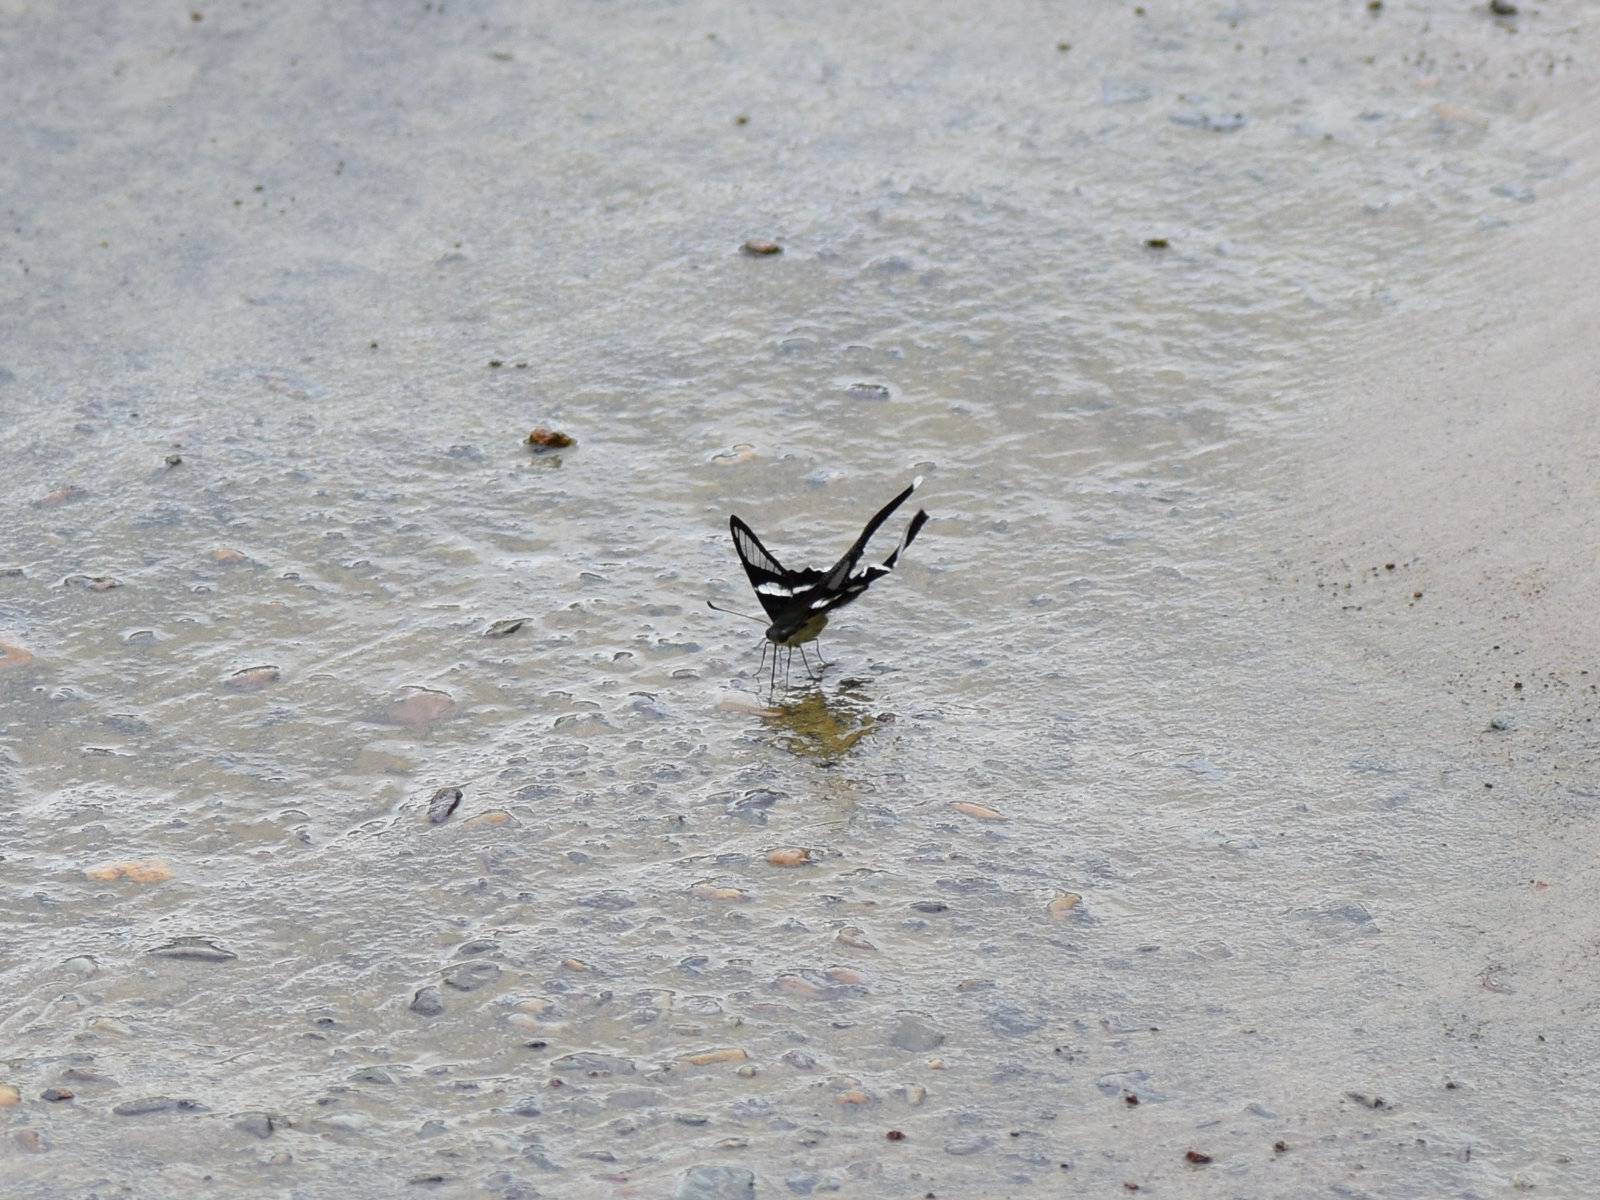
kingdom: Animalia
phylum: Arthropoda
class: Insecta
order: Lepidoptera
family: Papilionidae
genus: Lamproptera
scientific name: Lamproptera curius
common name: White dragontail
